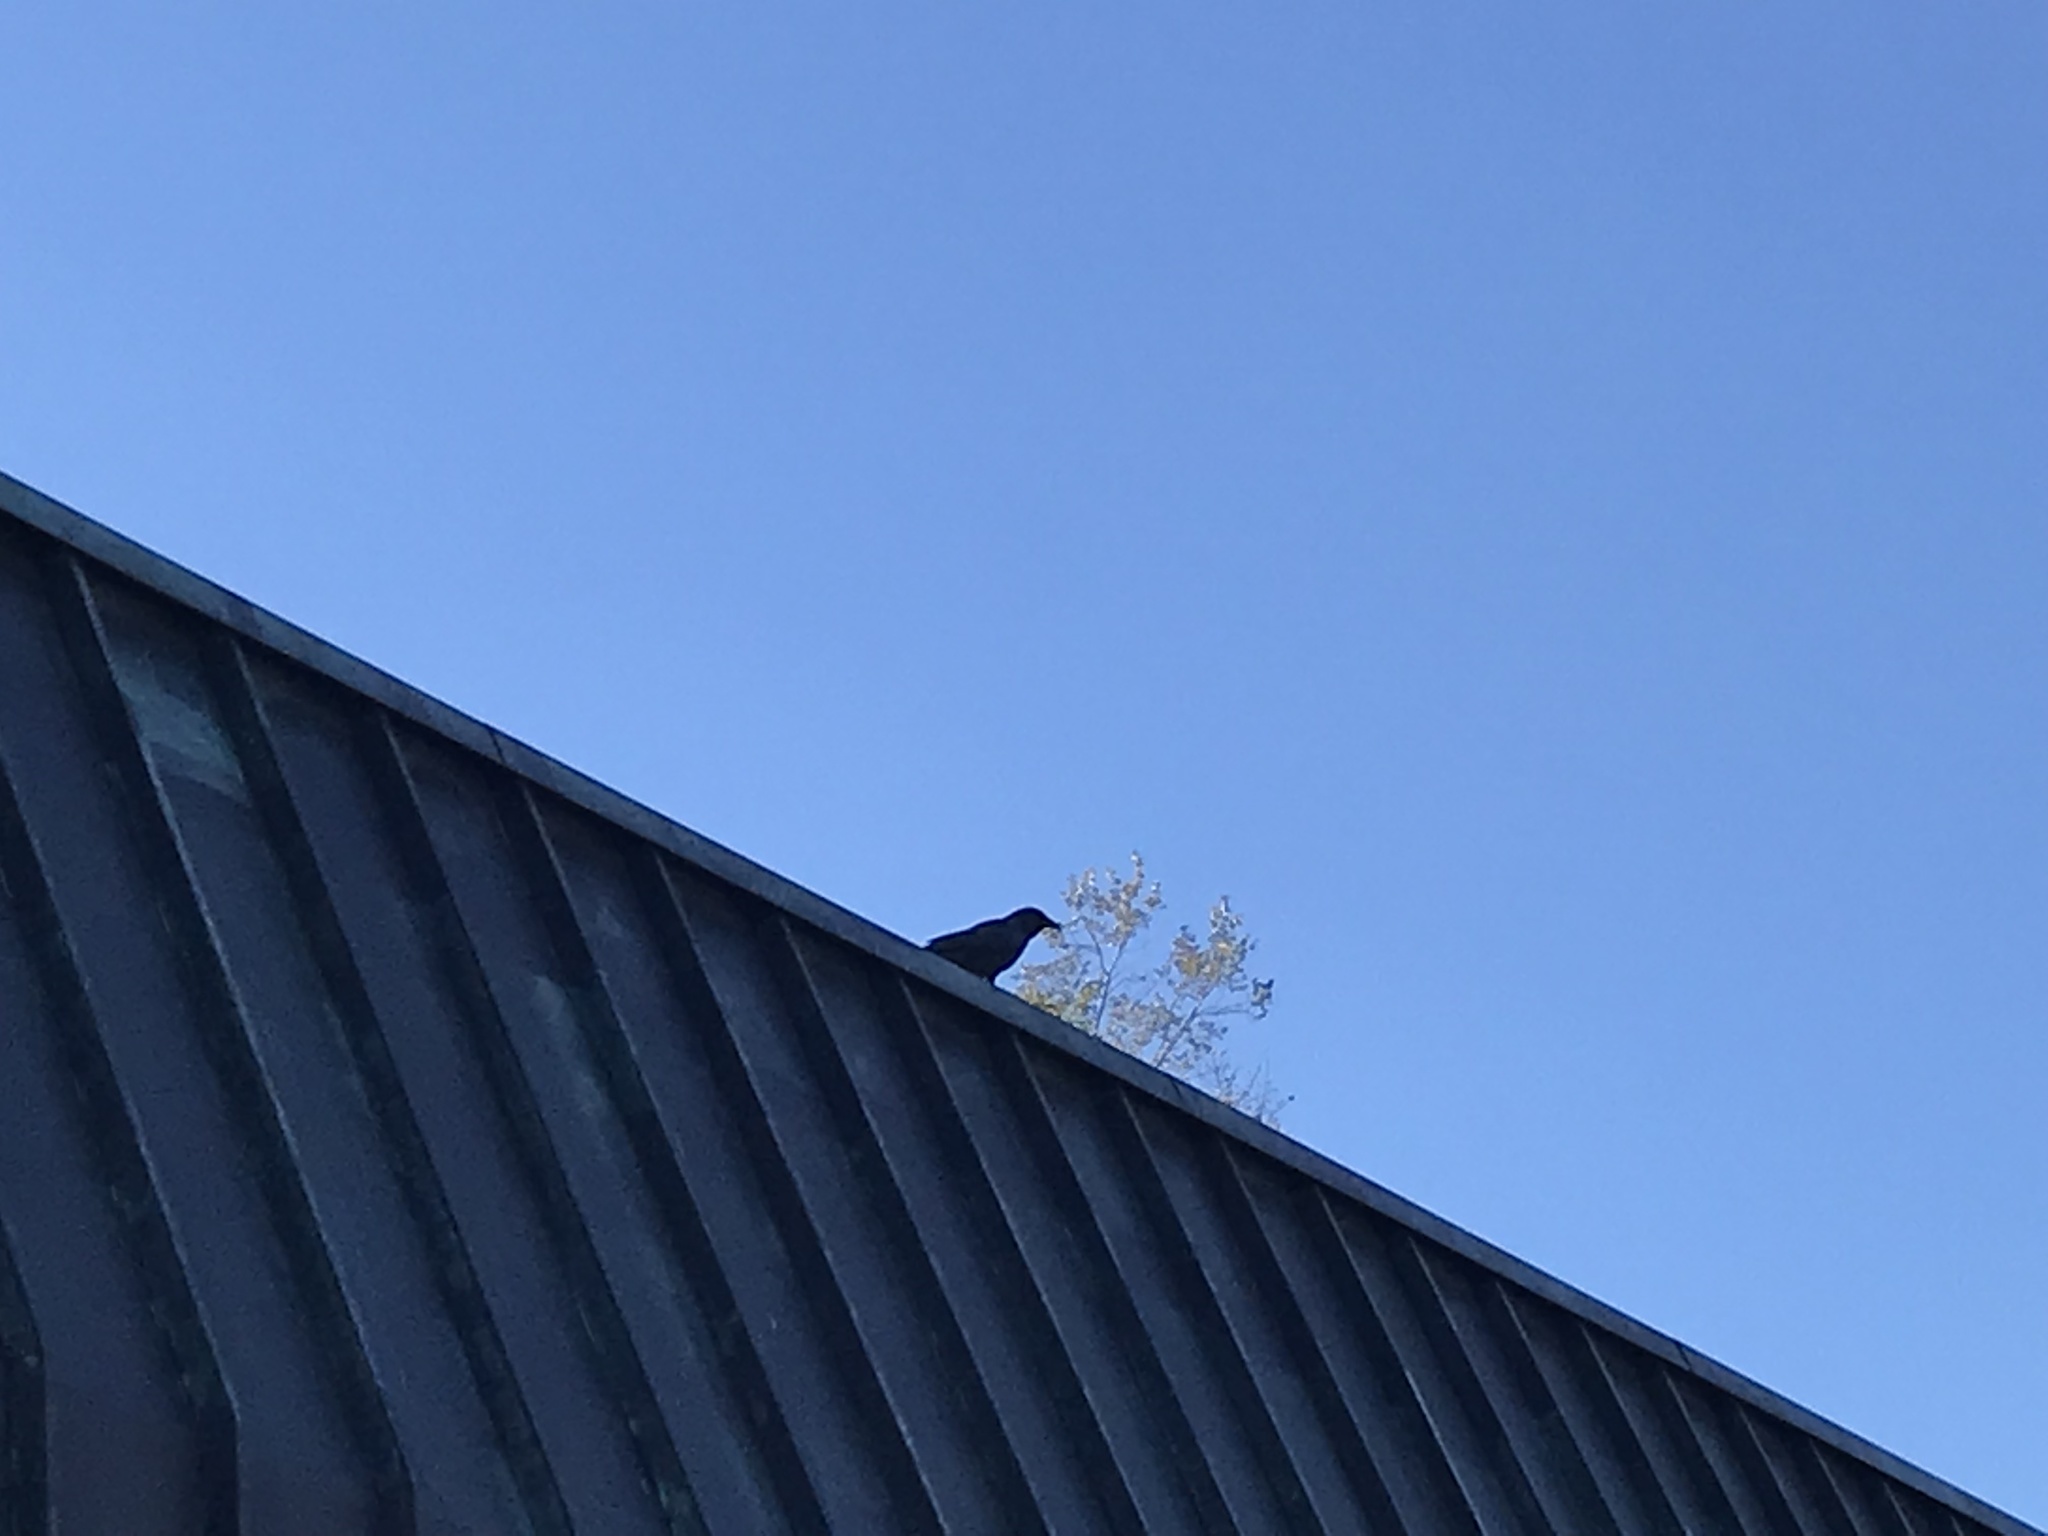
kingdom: Animalia
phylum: Chordata
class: Aves
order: Passeriformes
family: Corvidae
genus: Corvus
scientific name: Corvus brachyrhynchos
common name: American crow
